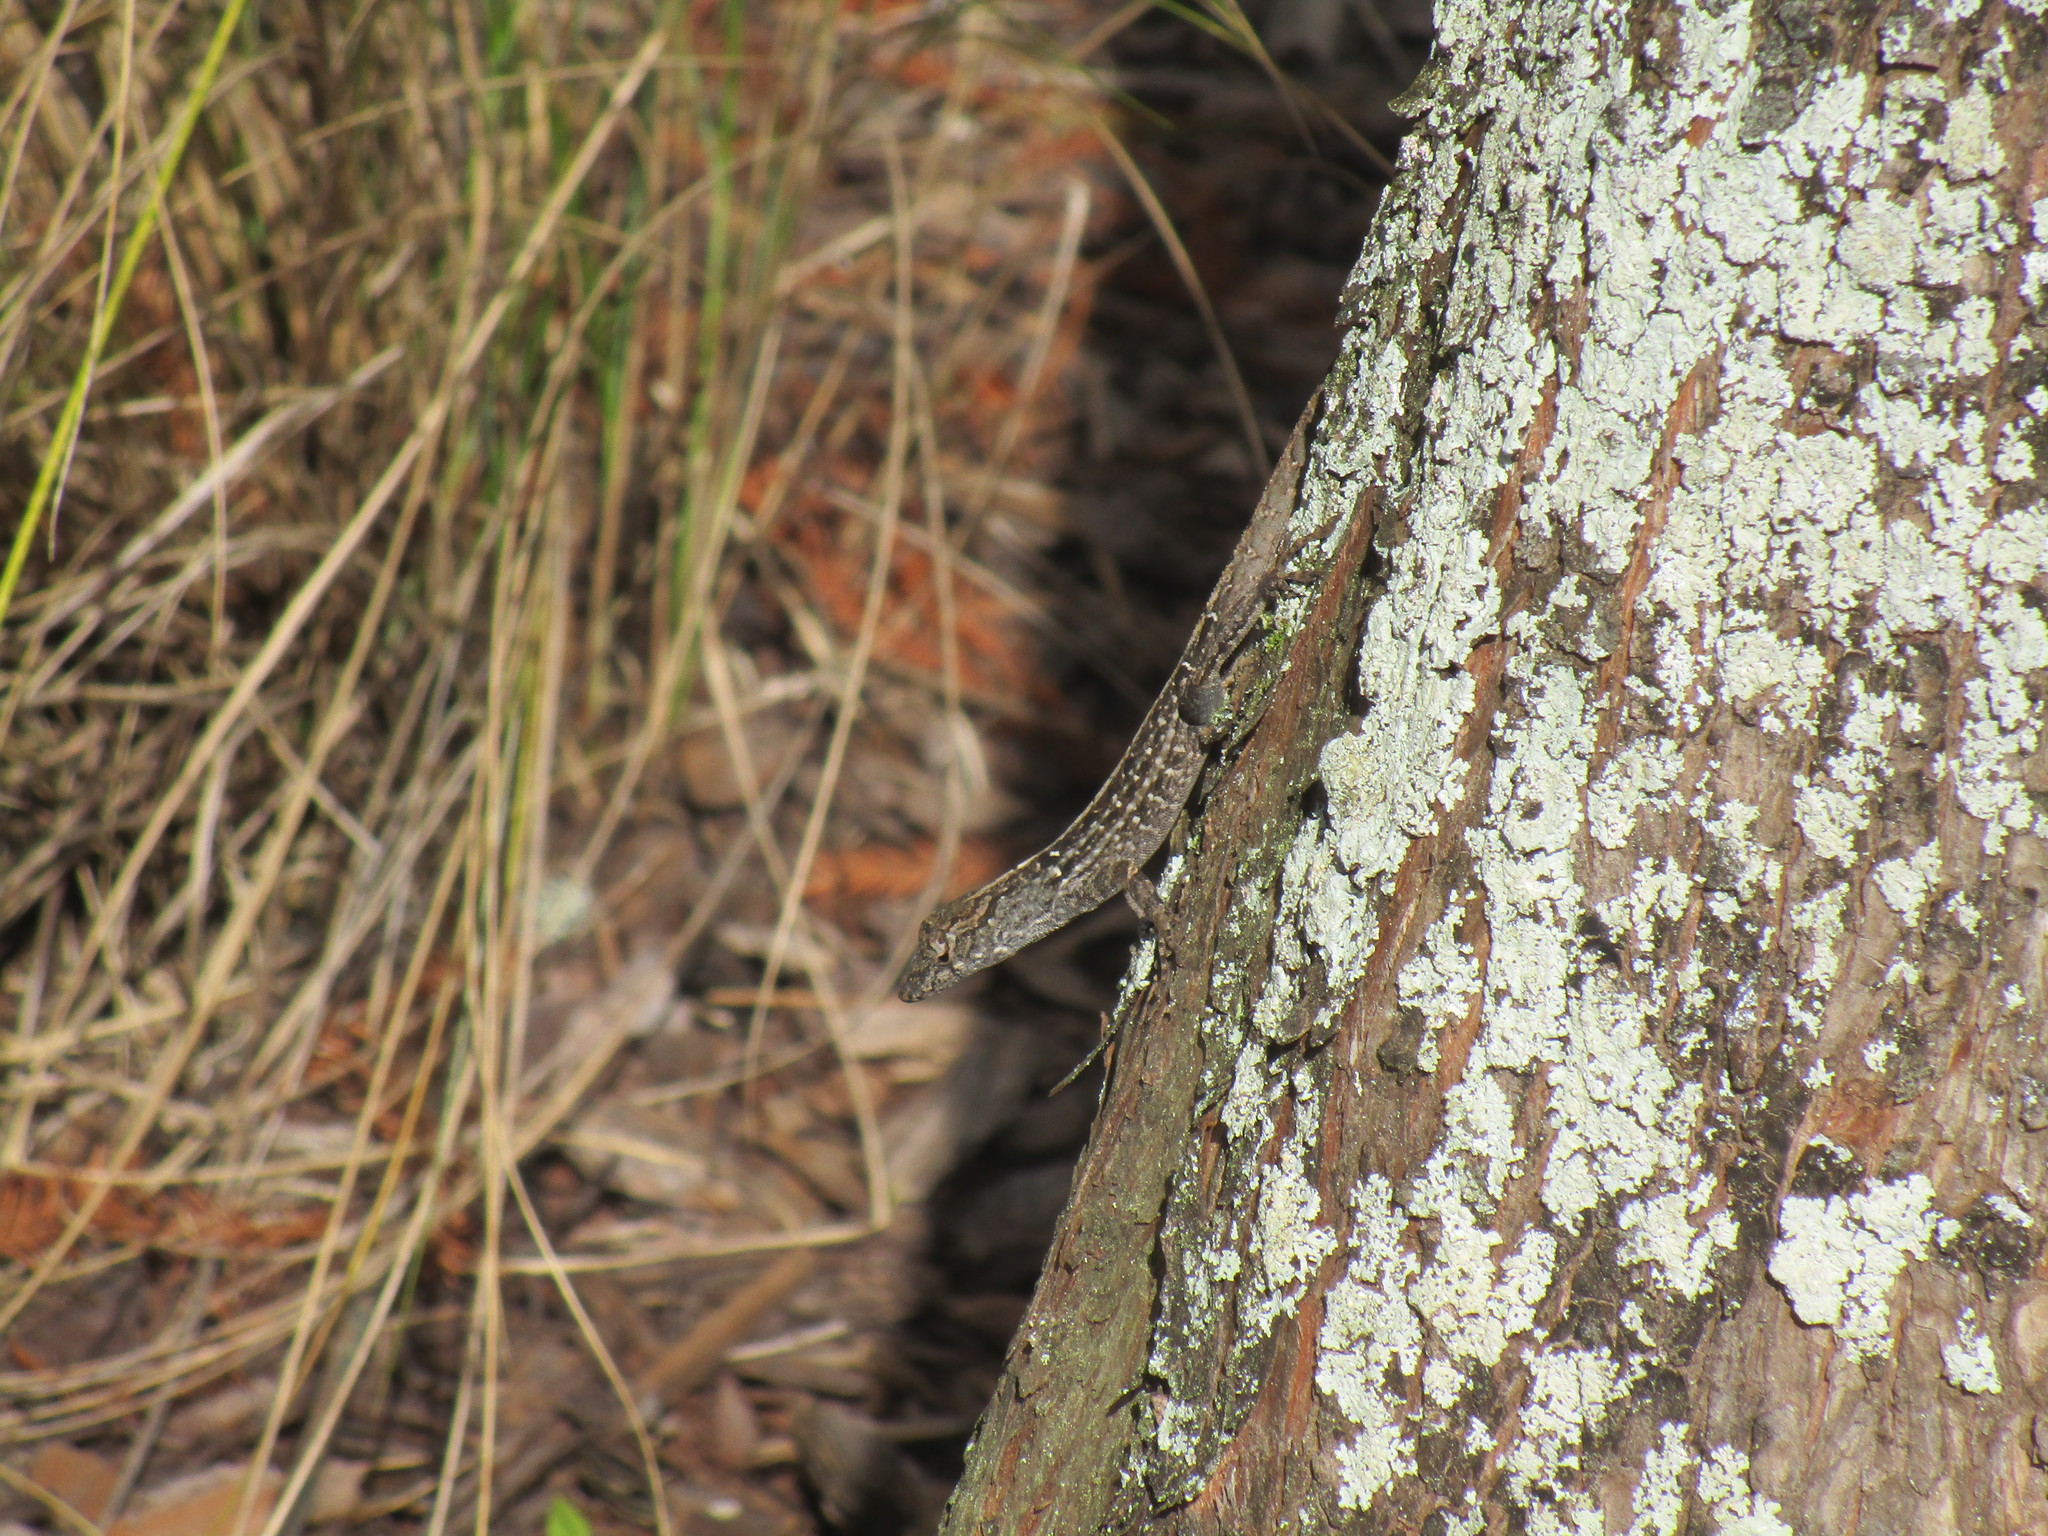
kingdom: Animalia
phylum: Chordata
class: Squamata
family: Dactyloidae
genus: Anolis
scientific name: Anolis sagrei
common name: Brown anole
